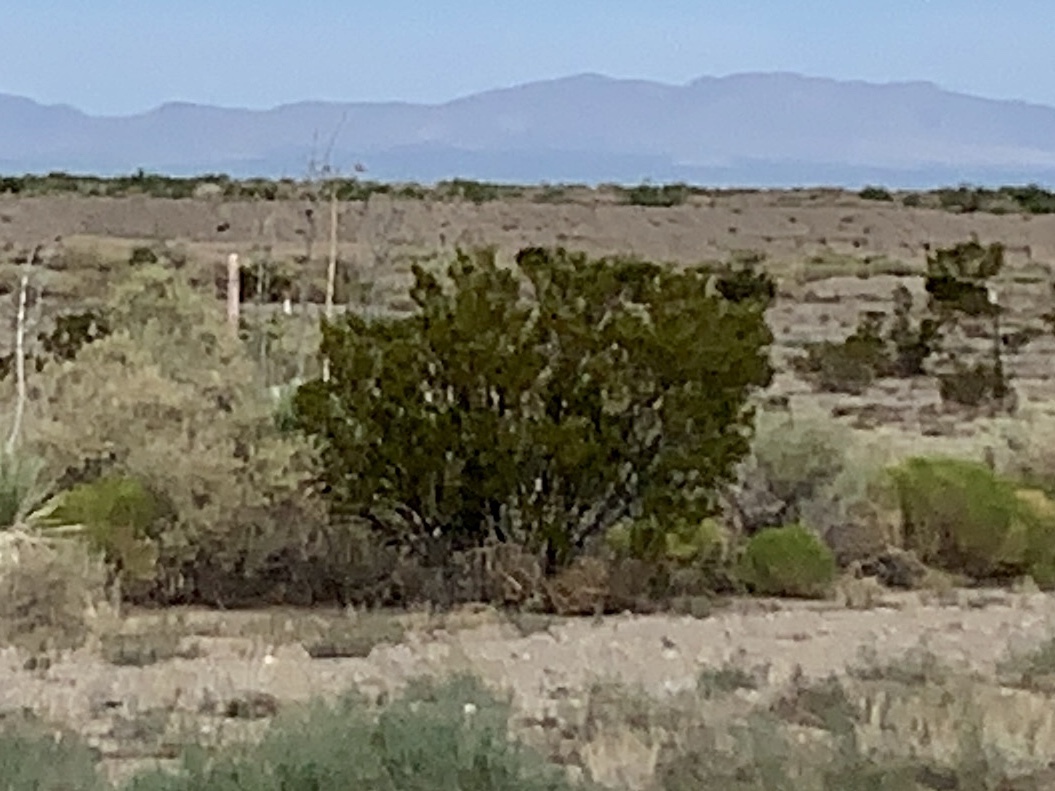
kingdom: Plantae
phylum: Tracheophyta
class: Magnoliopsida
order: Zygophyllales
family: Zygophyllaceae
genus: Larrea
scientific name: Larrea tridentata
